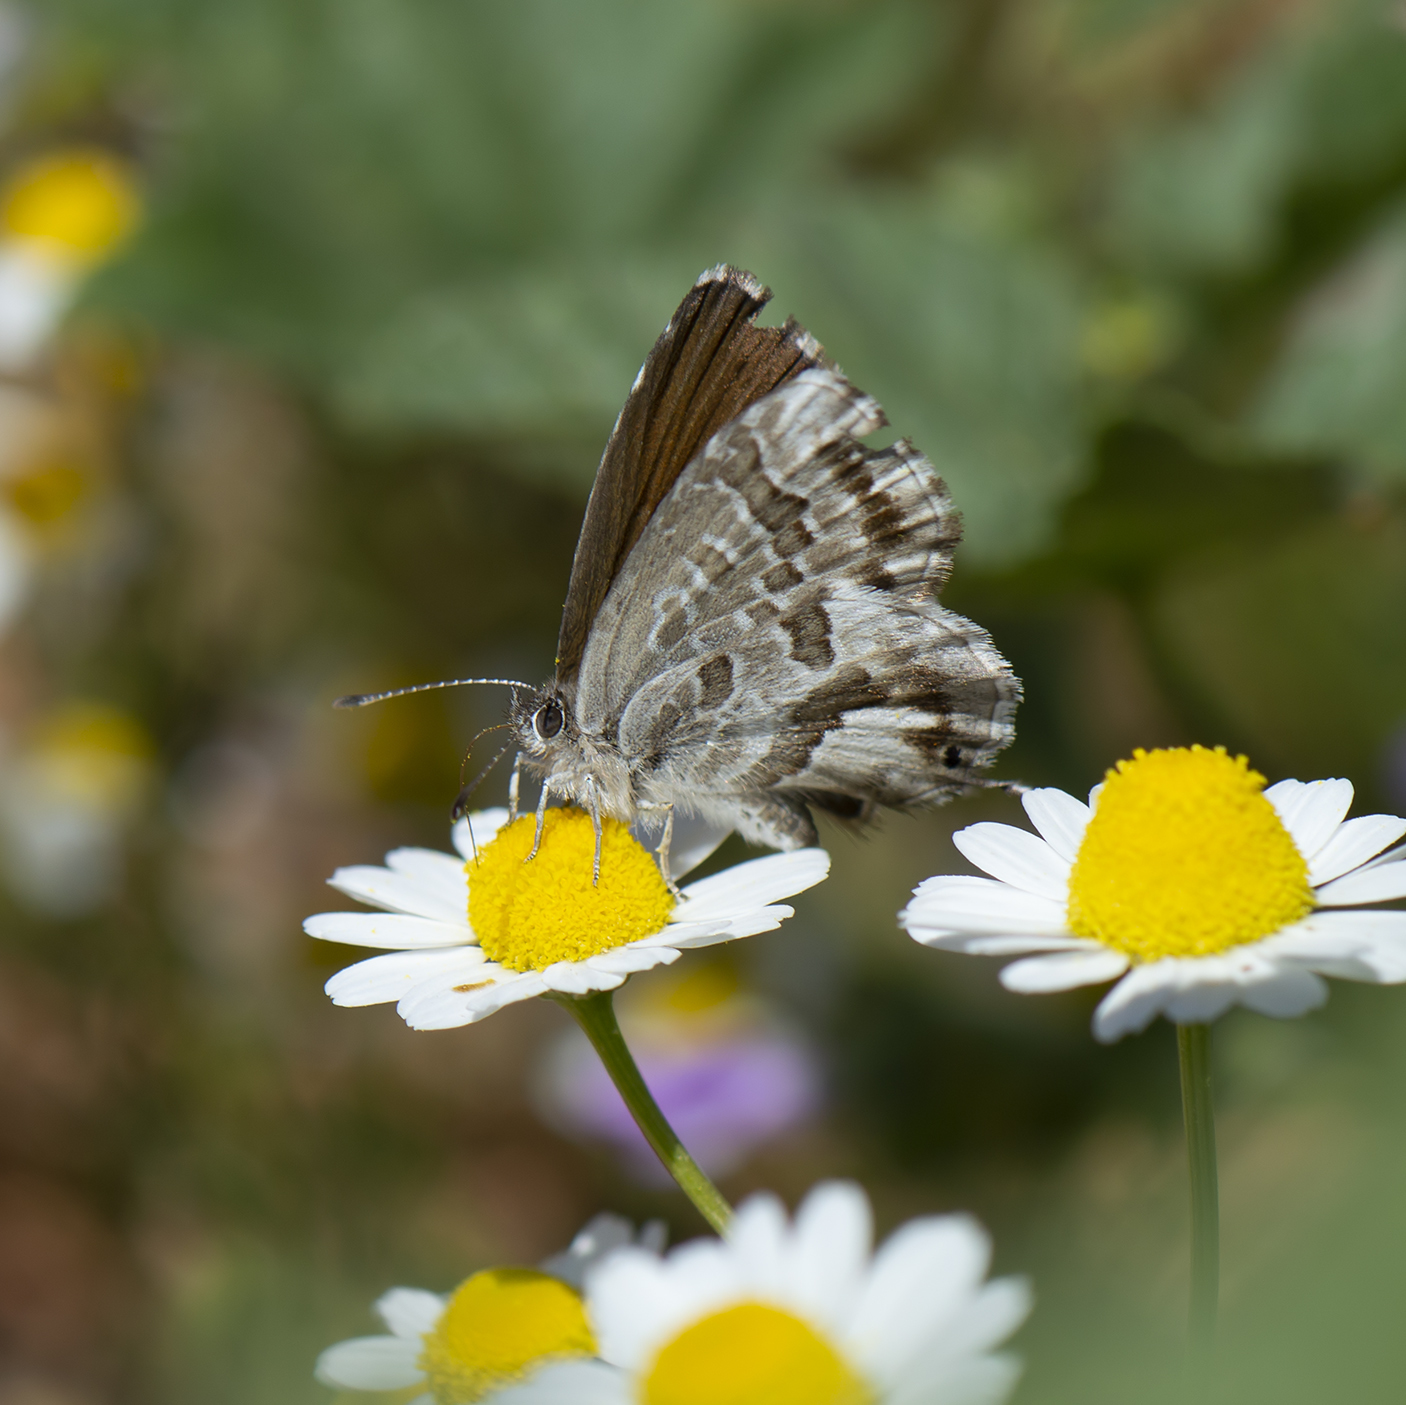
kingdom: Animalia
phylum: Arthropoda
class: Insecta
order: Lepidoptera
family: Lycaenidae
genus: Cacyreus
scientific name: Cacyreus marshalli
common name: Geranium bronze
